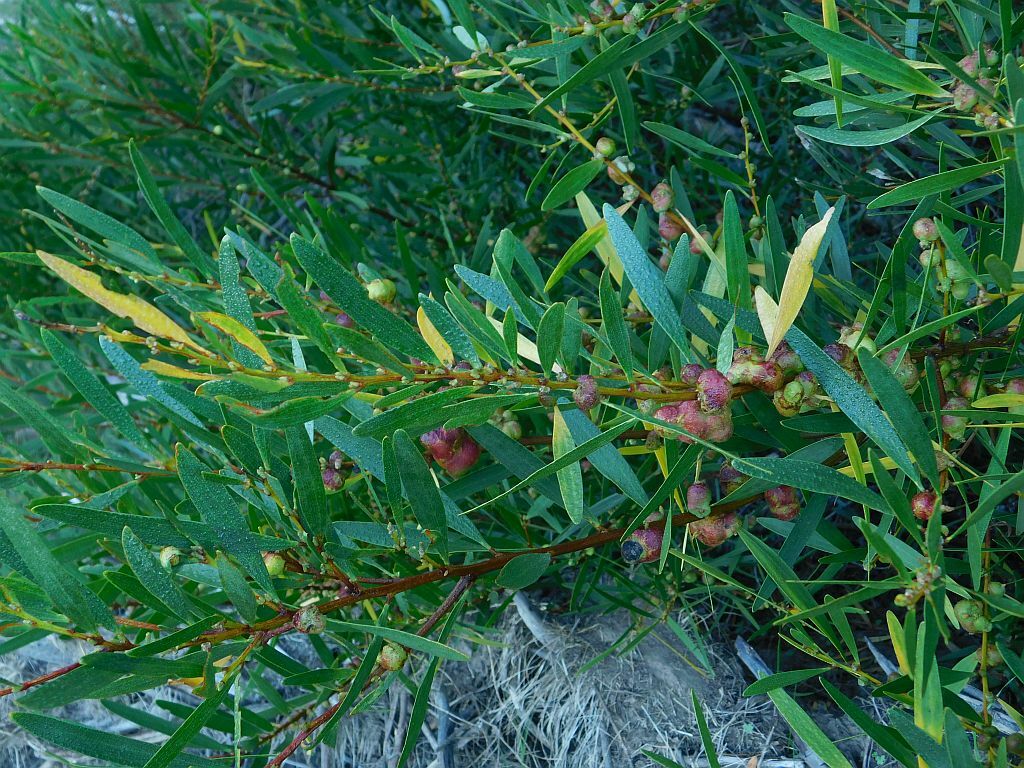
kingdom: Animalia
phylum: Arthropoda
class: Insecta
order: Hymenoptera
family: Pteromalidae
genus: Trichilogaster
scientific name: Trichilogaster acaciaelongifoliae
